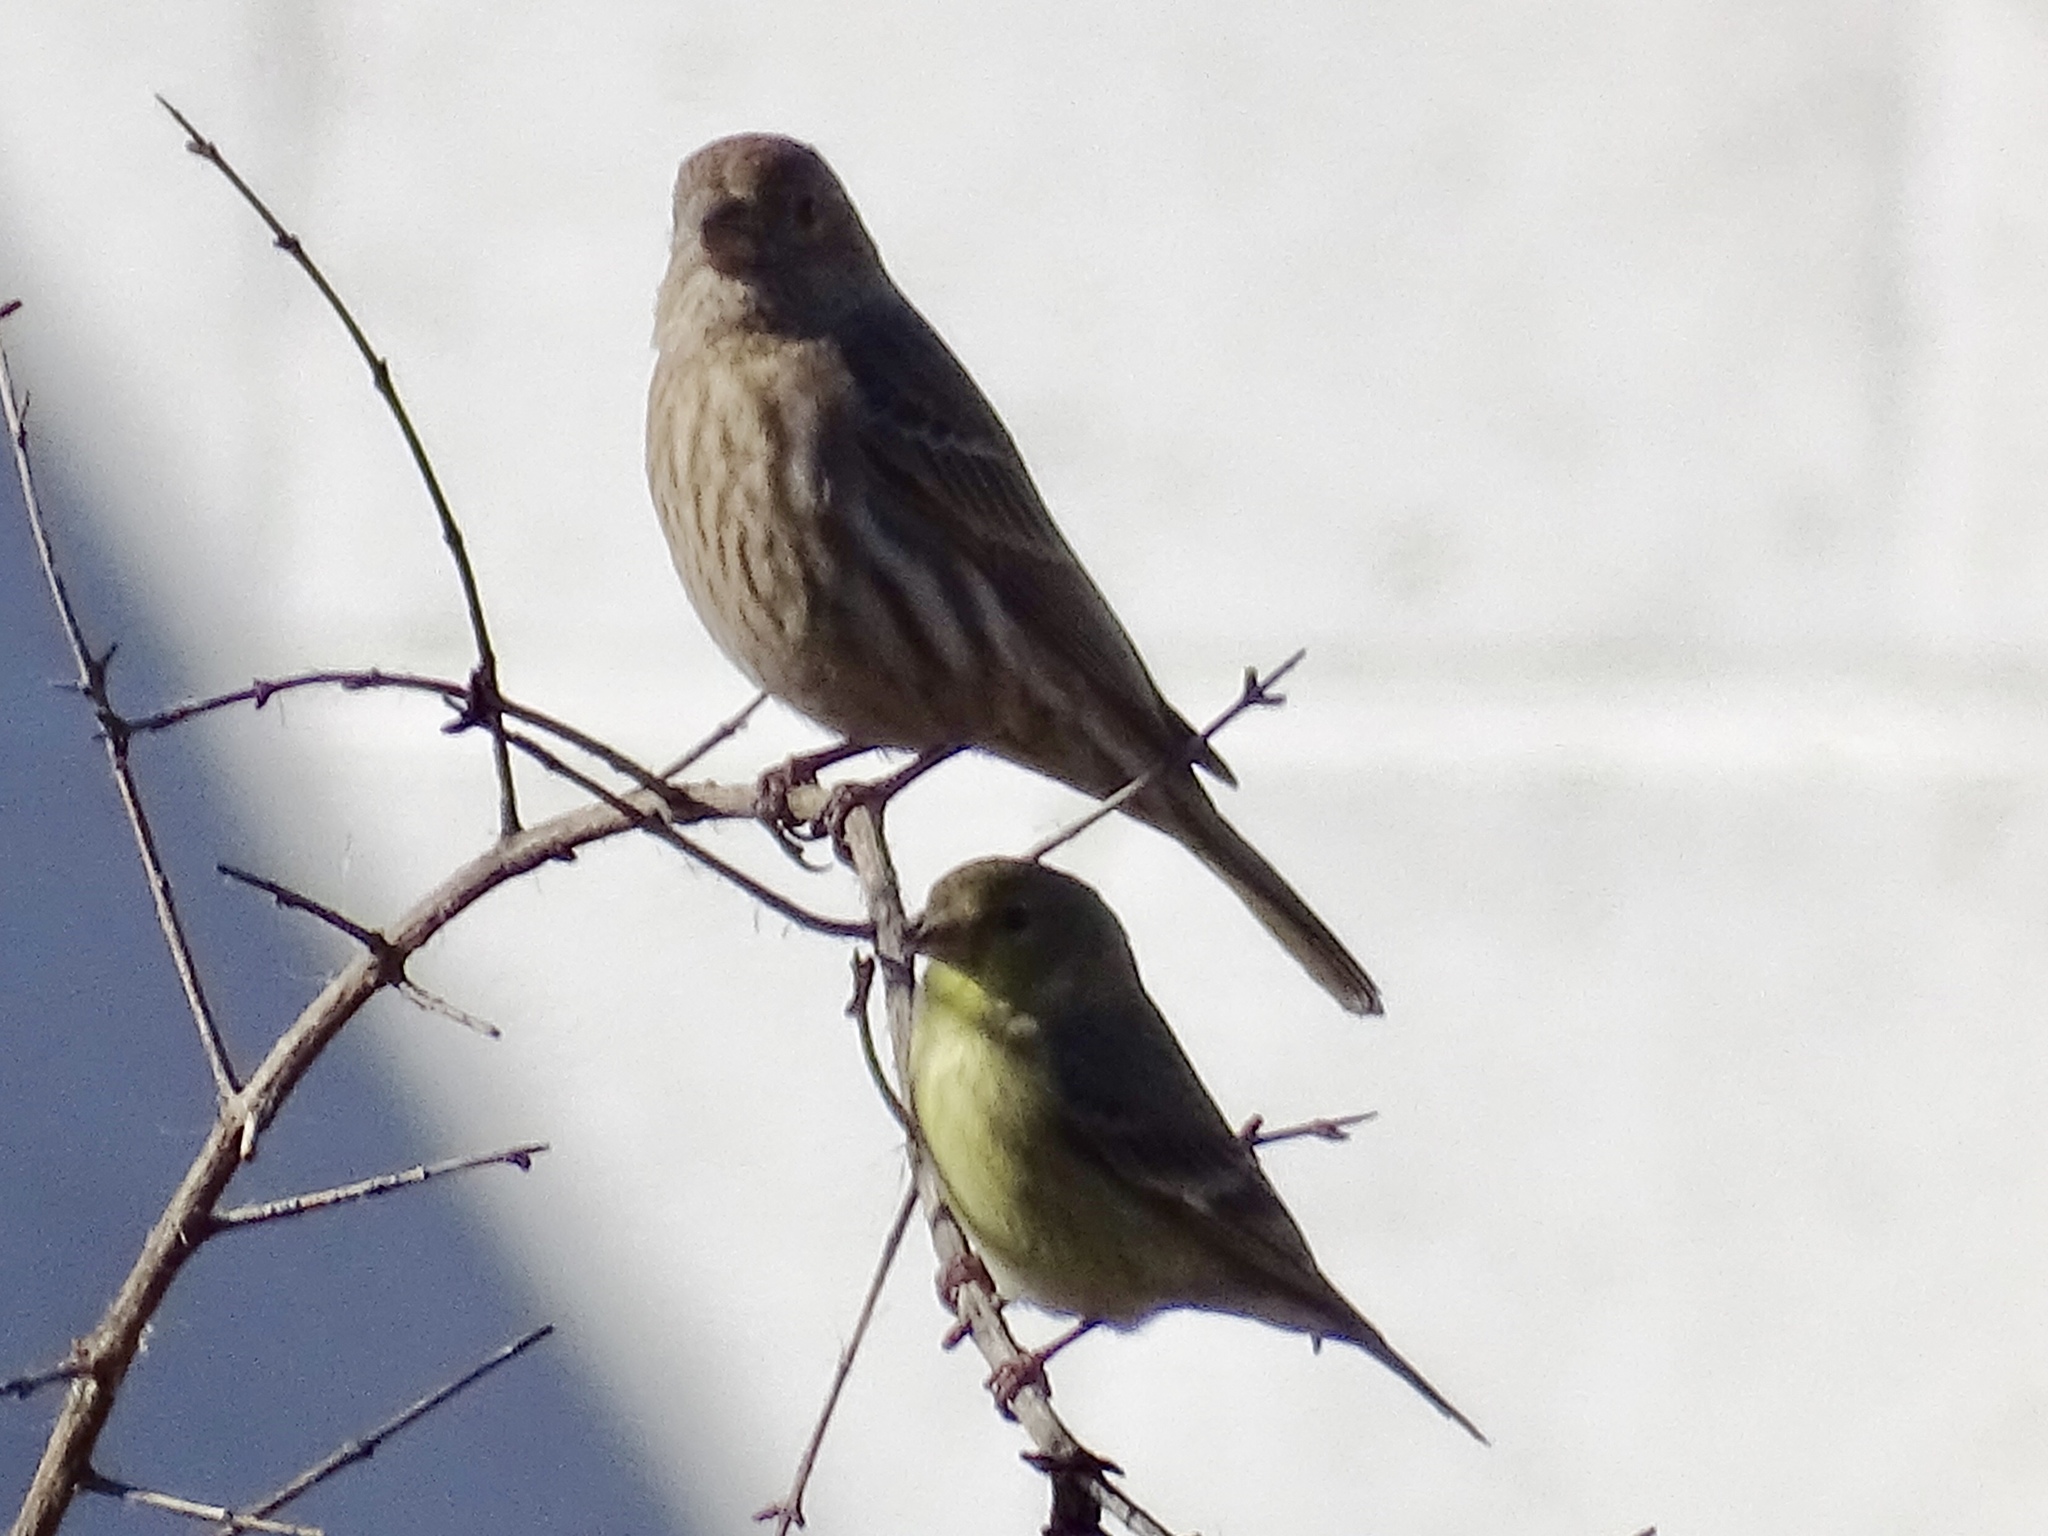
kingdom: Animalia
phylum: Chordata
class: Aves
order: Passeriformes
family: Fringillidae
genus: Haemorhous
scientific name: Haemorhous mexicanus
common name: House finch
